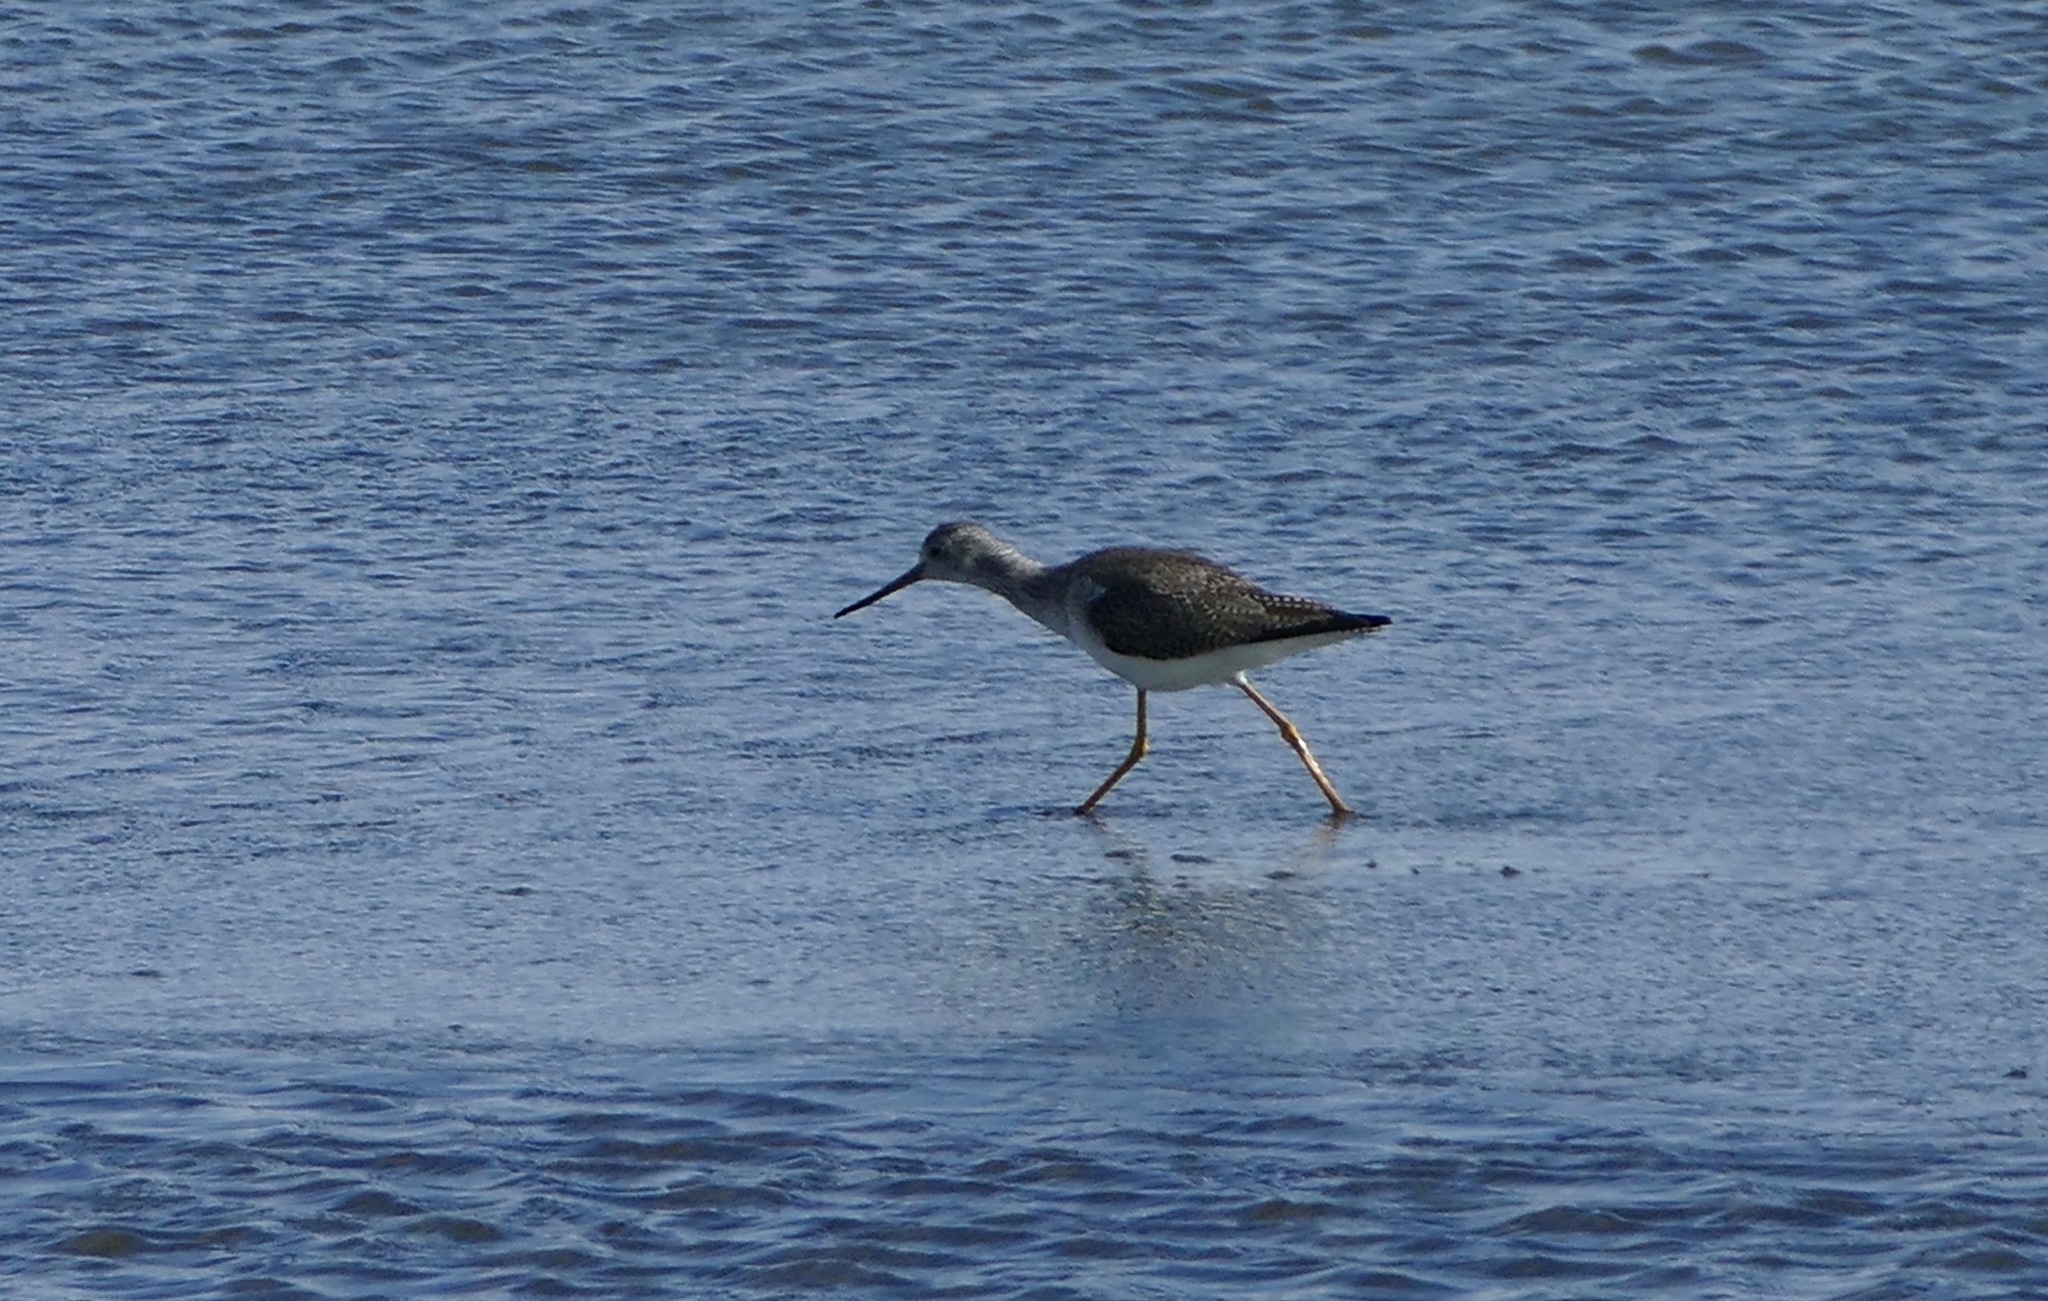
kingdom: Animalia
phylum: Chordata
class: Aves
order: Charadriiformes
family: Scolopacidae
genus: Tringa
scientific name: Tringa melanoleuca
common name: Greater yellowlegs
